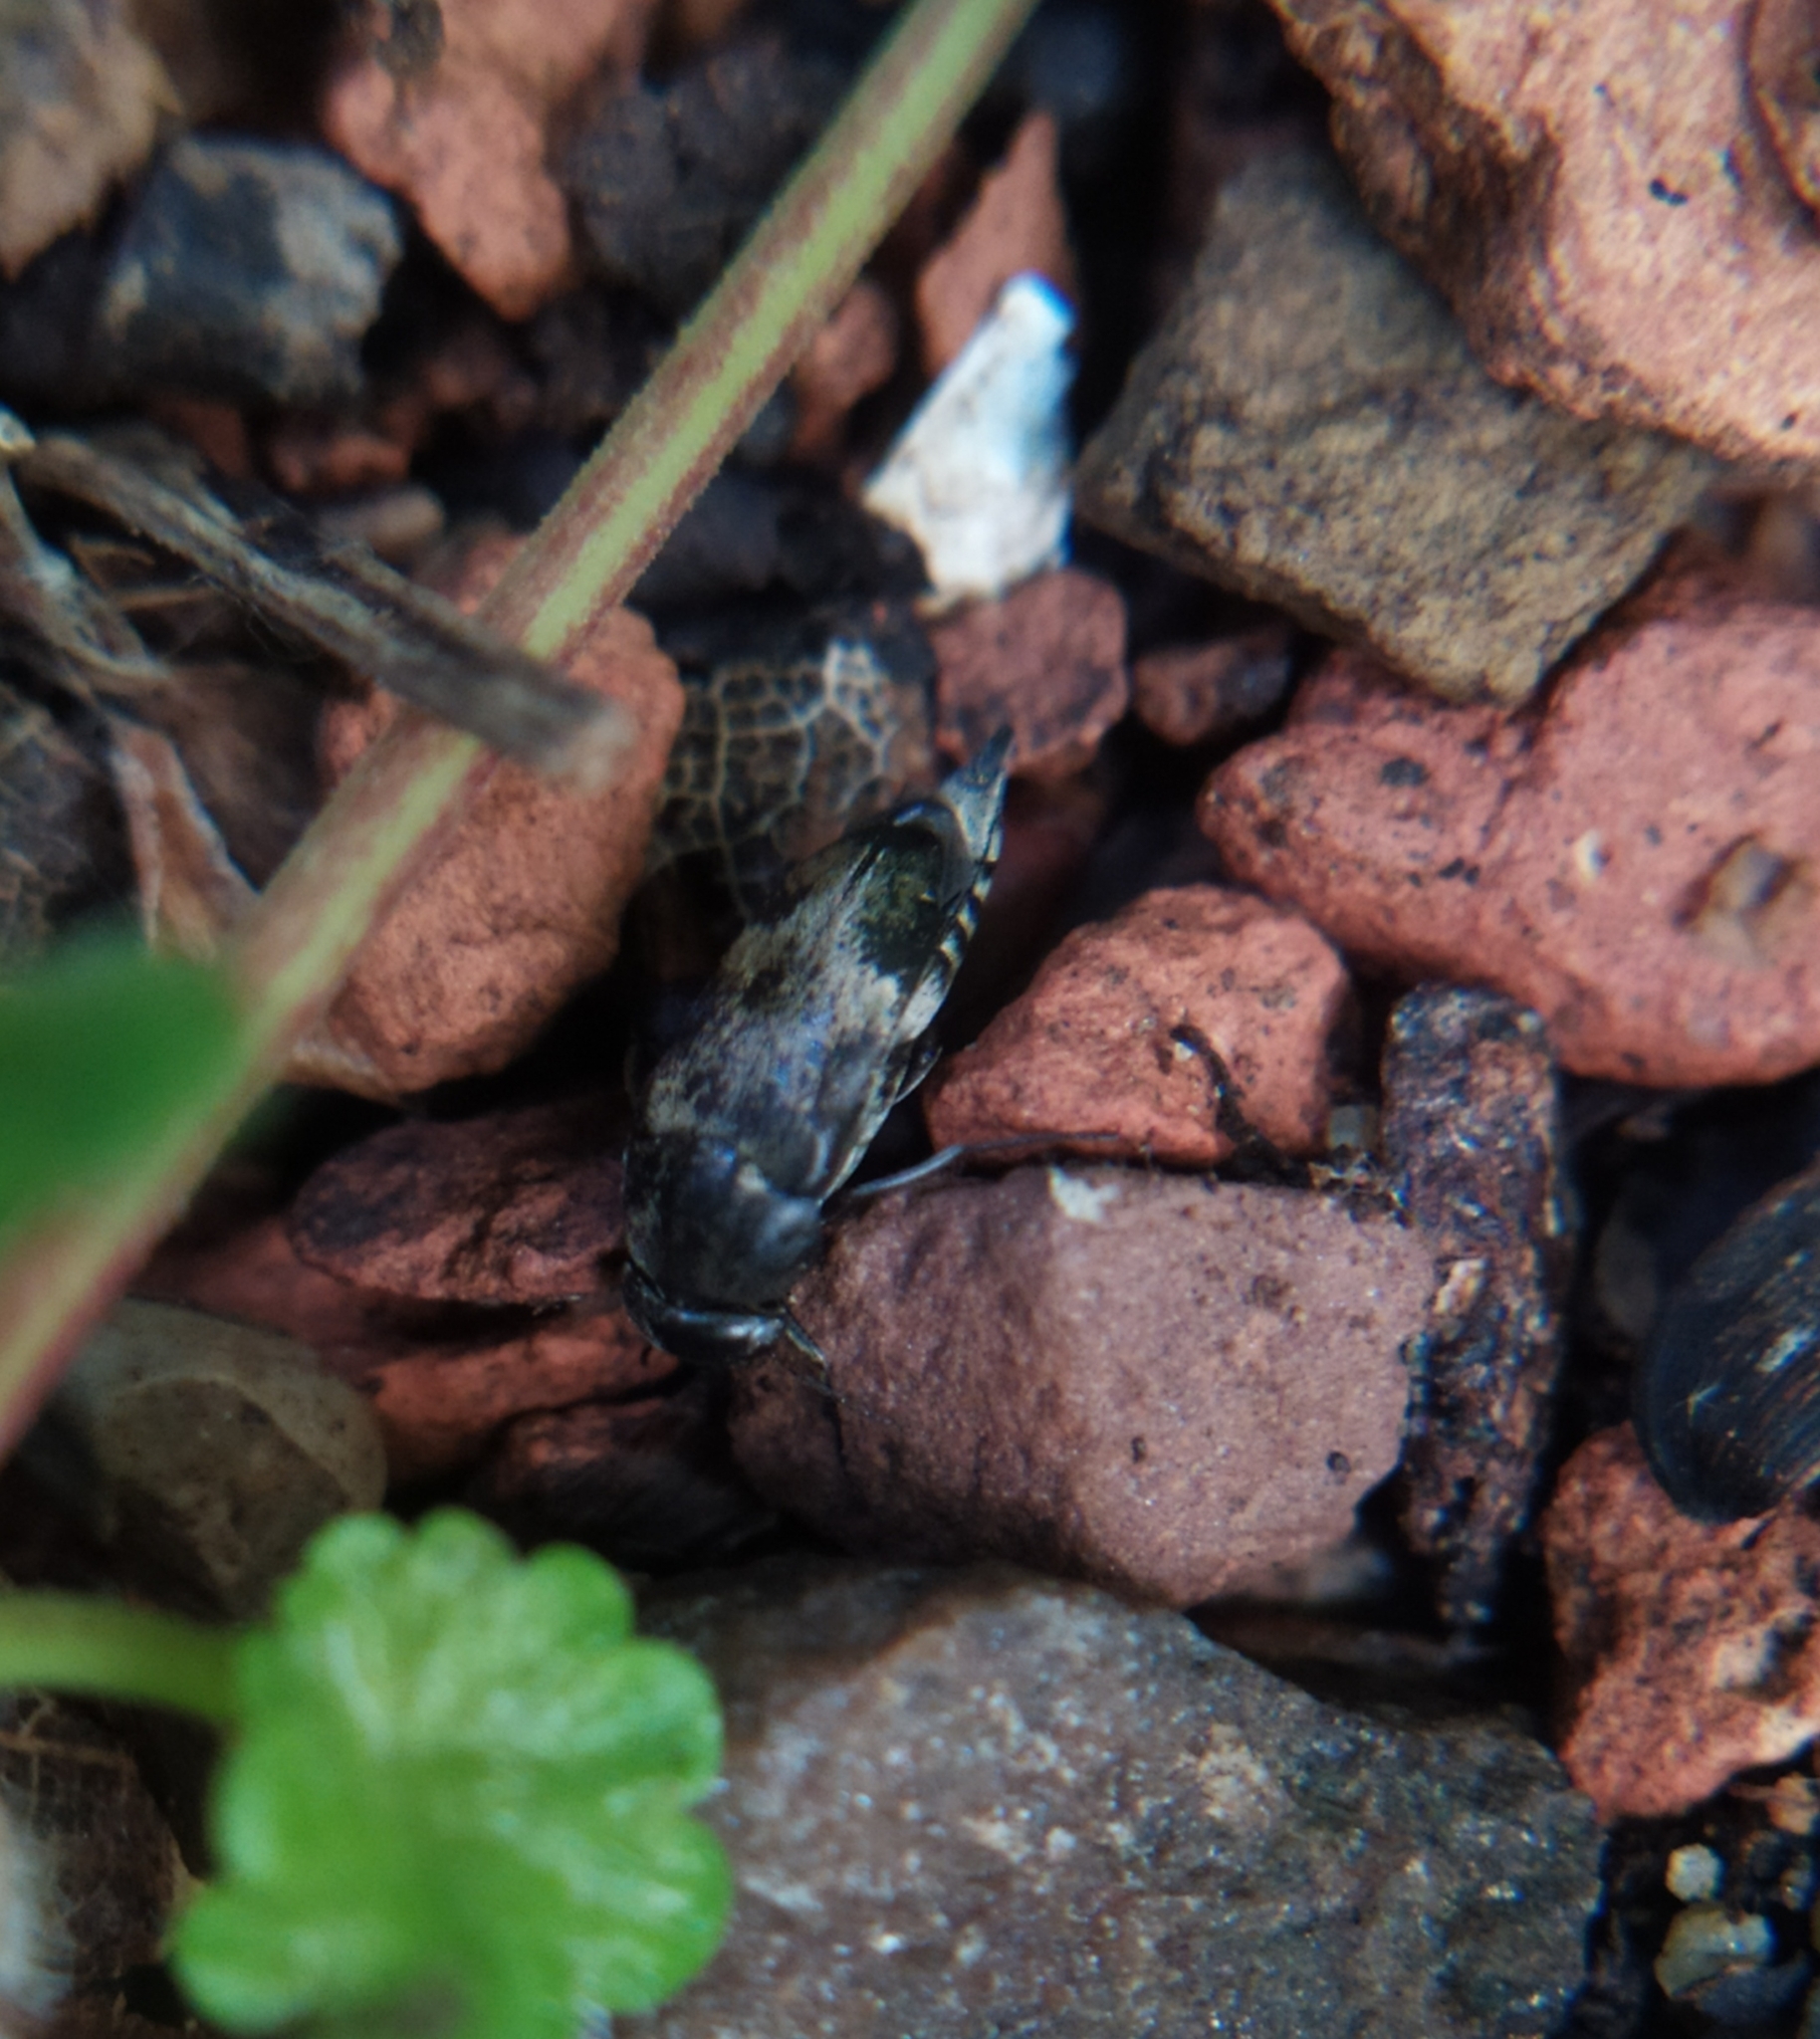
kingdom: Animalia
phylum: Arthropoda
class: Insecta
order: Coleoptera
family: Mordellidae
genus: Tomoxia
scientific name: Tomoxia bucephala
